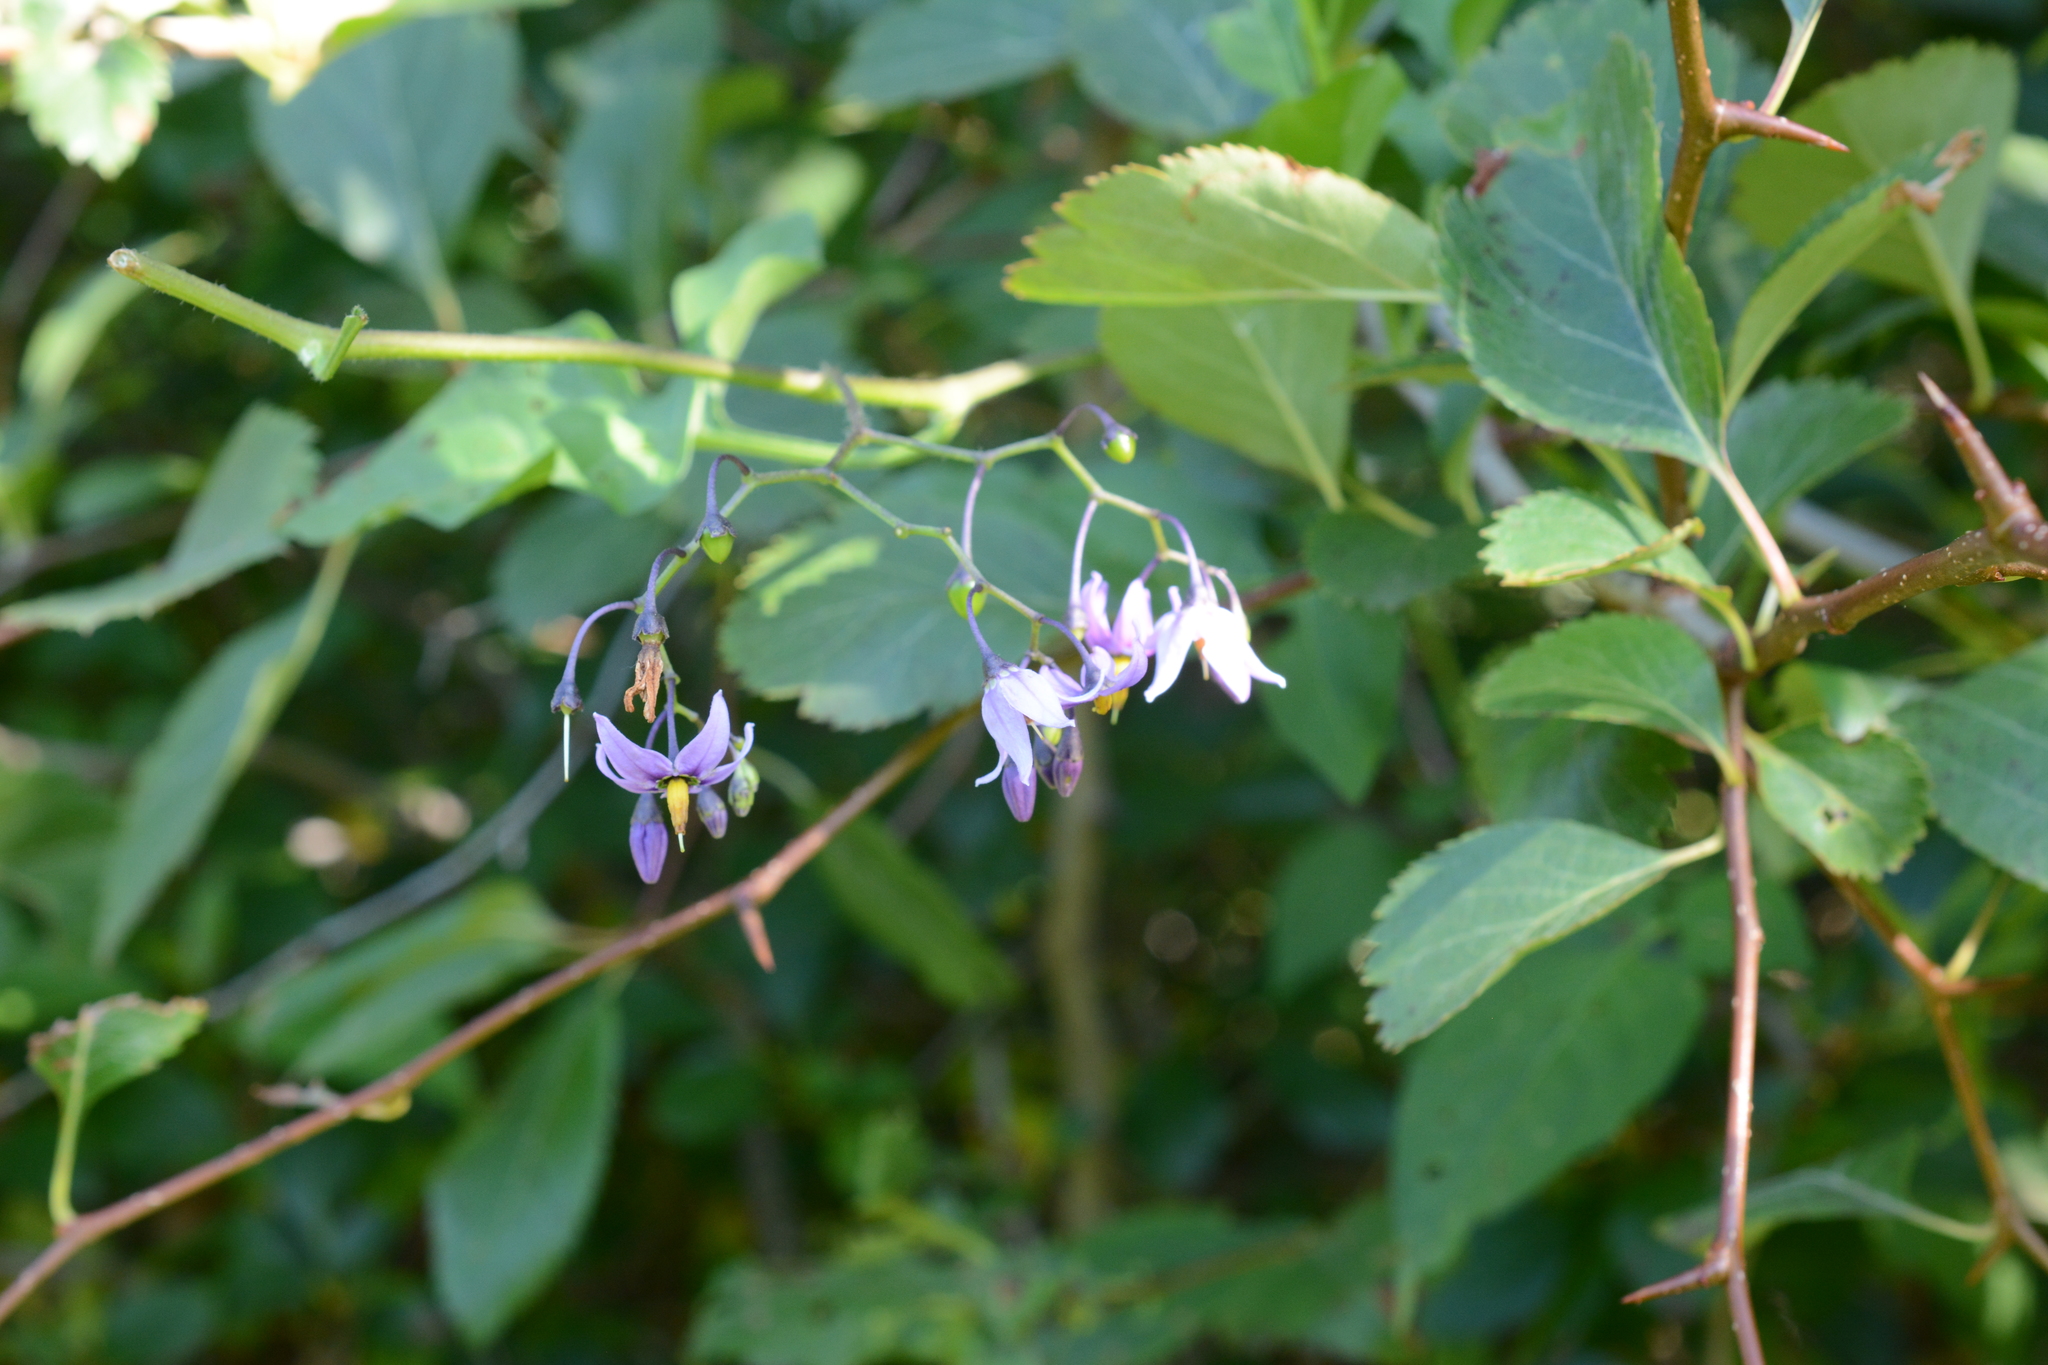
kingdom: Plantae
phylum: Tracheophyta
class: Magnoliopsida
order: Solanales
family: Solanaceae
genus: Solanum
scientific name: Solanum dulcamara
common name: Climbing nightshade
